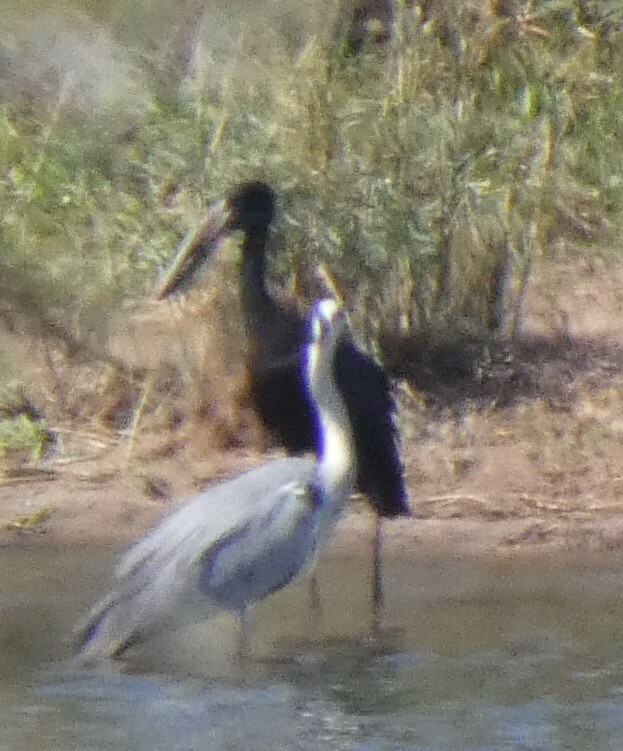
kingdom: Animalia
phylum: Chordata
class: Aves
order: Ciconiiformes
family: Ciconiidae
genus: Anastomus
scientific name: Anastomus lamelligerus
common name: African openbill
